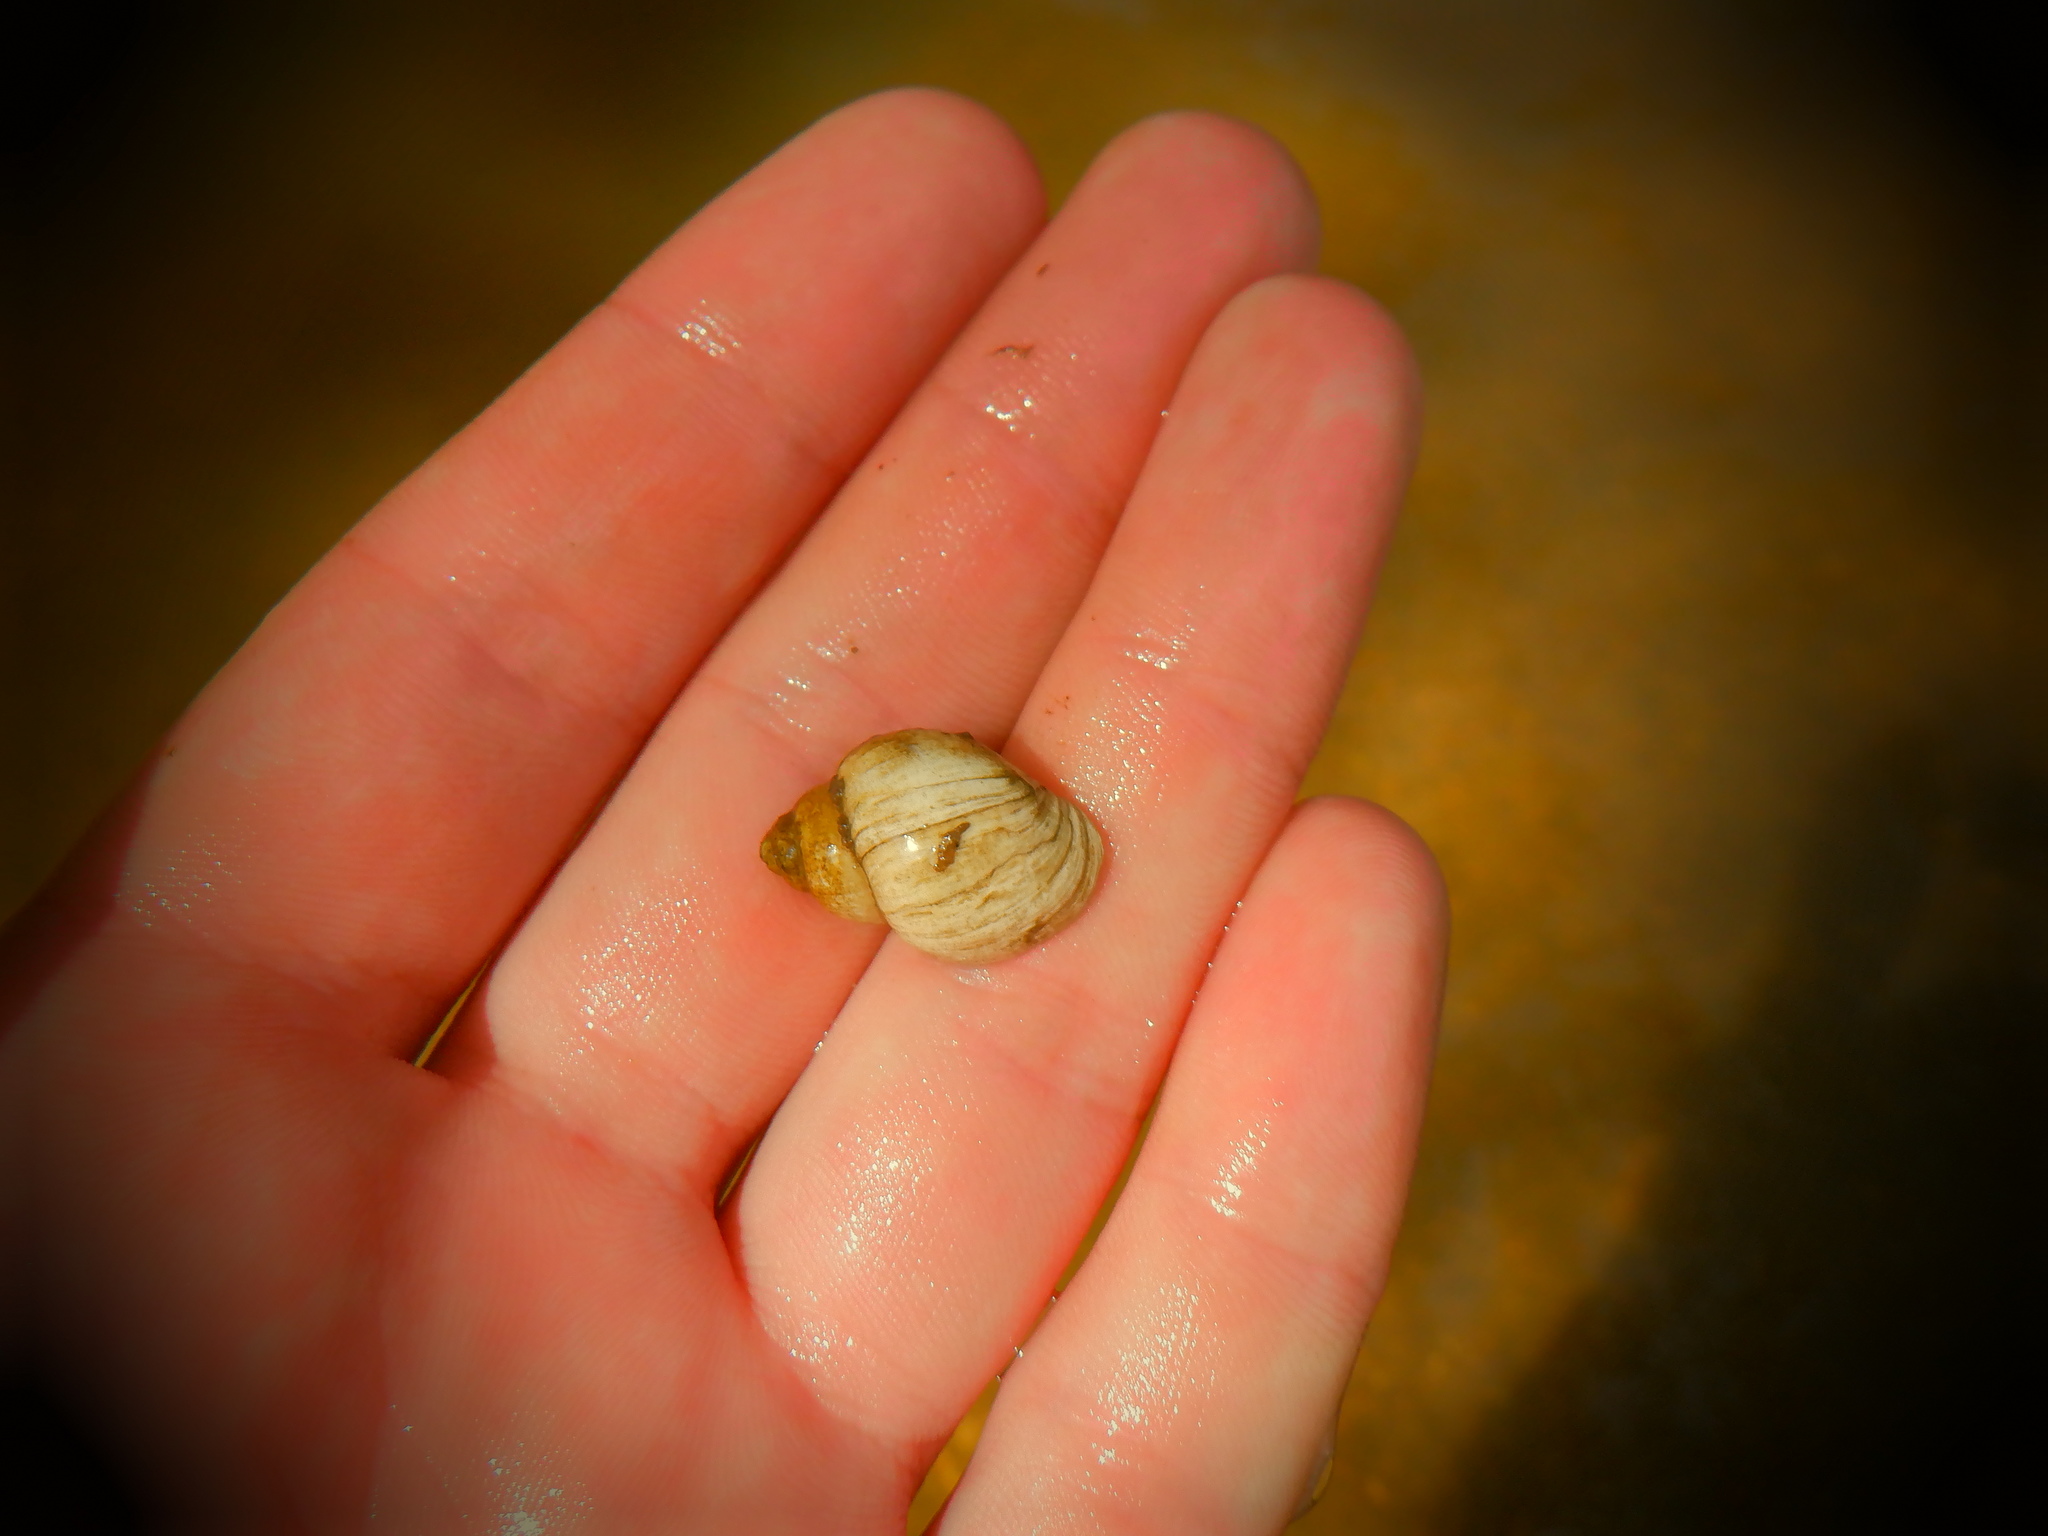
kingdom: Animalia
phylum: Mollusca
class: Gastropoda
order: Architaenioglossa
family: Viviparidae
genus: Campeloma
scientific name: Campeloma decisum
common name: Pointed campeloma
